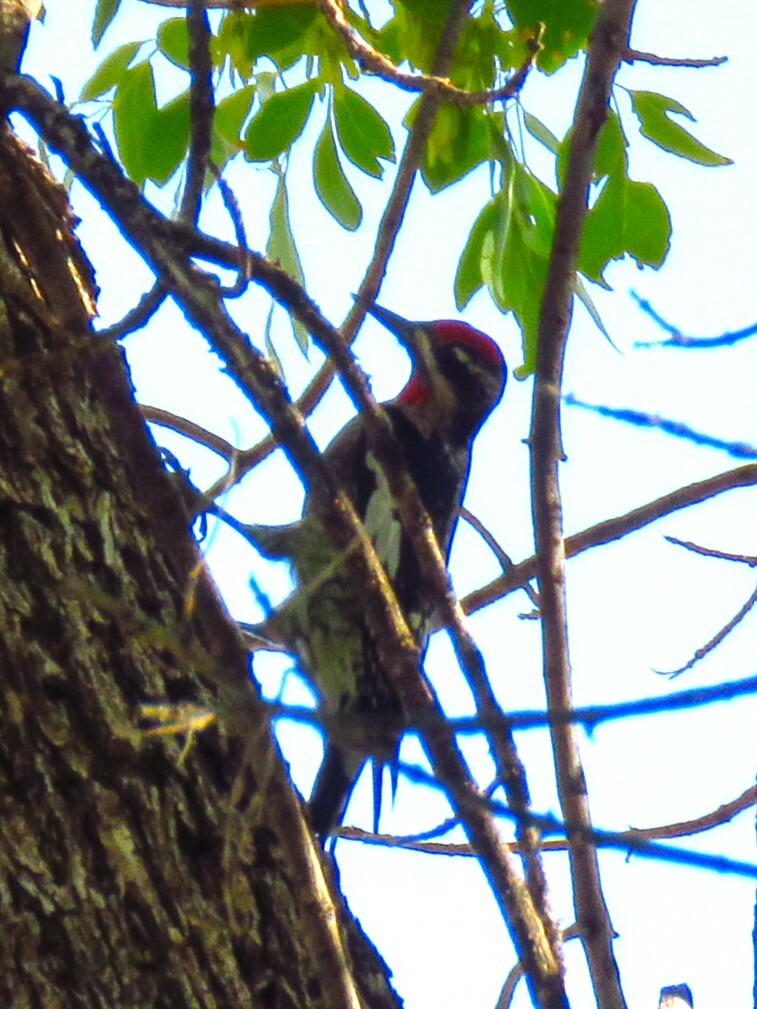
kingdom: Animalia
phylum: Chordata
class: Aves
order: Piciformes
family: Picidae
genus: Sphyrapicus
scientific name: Sphyrapicus nuchalis
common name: Red-naped sapsucker
